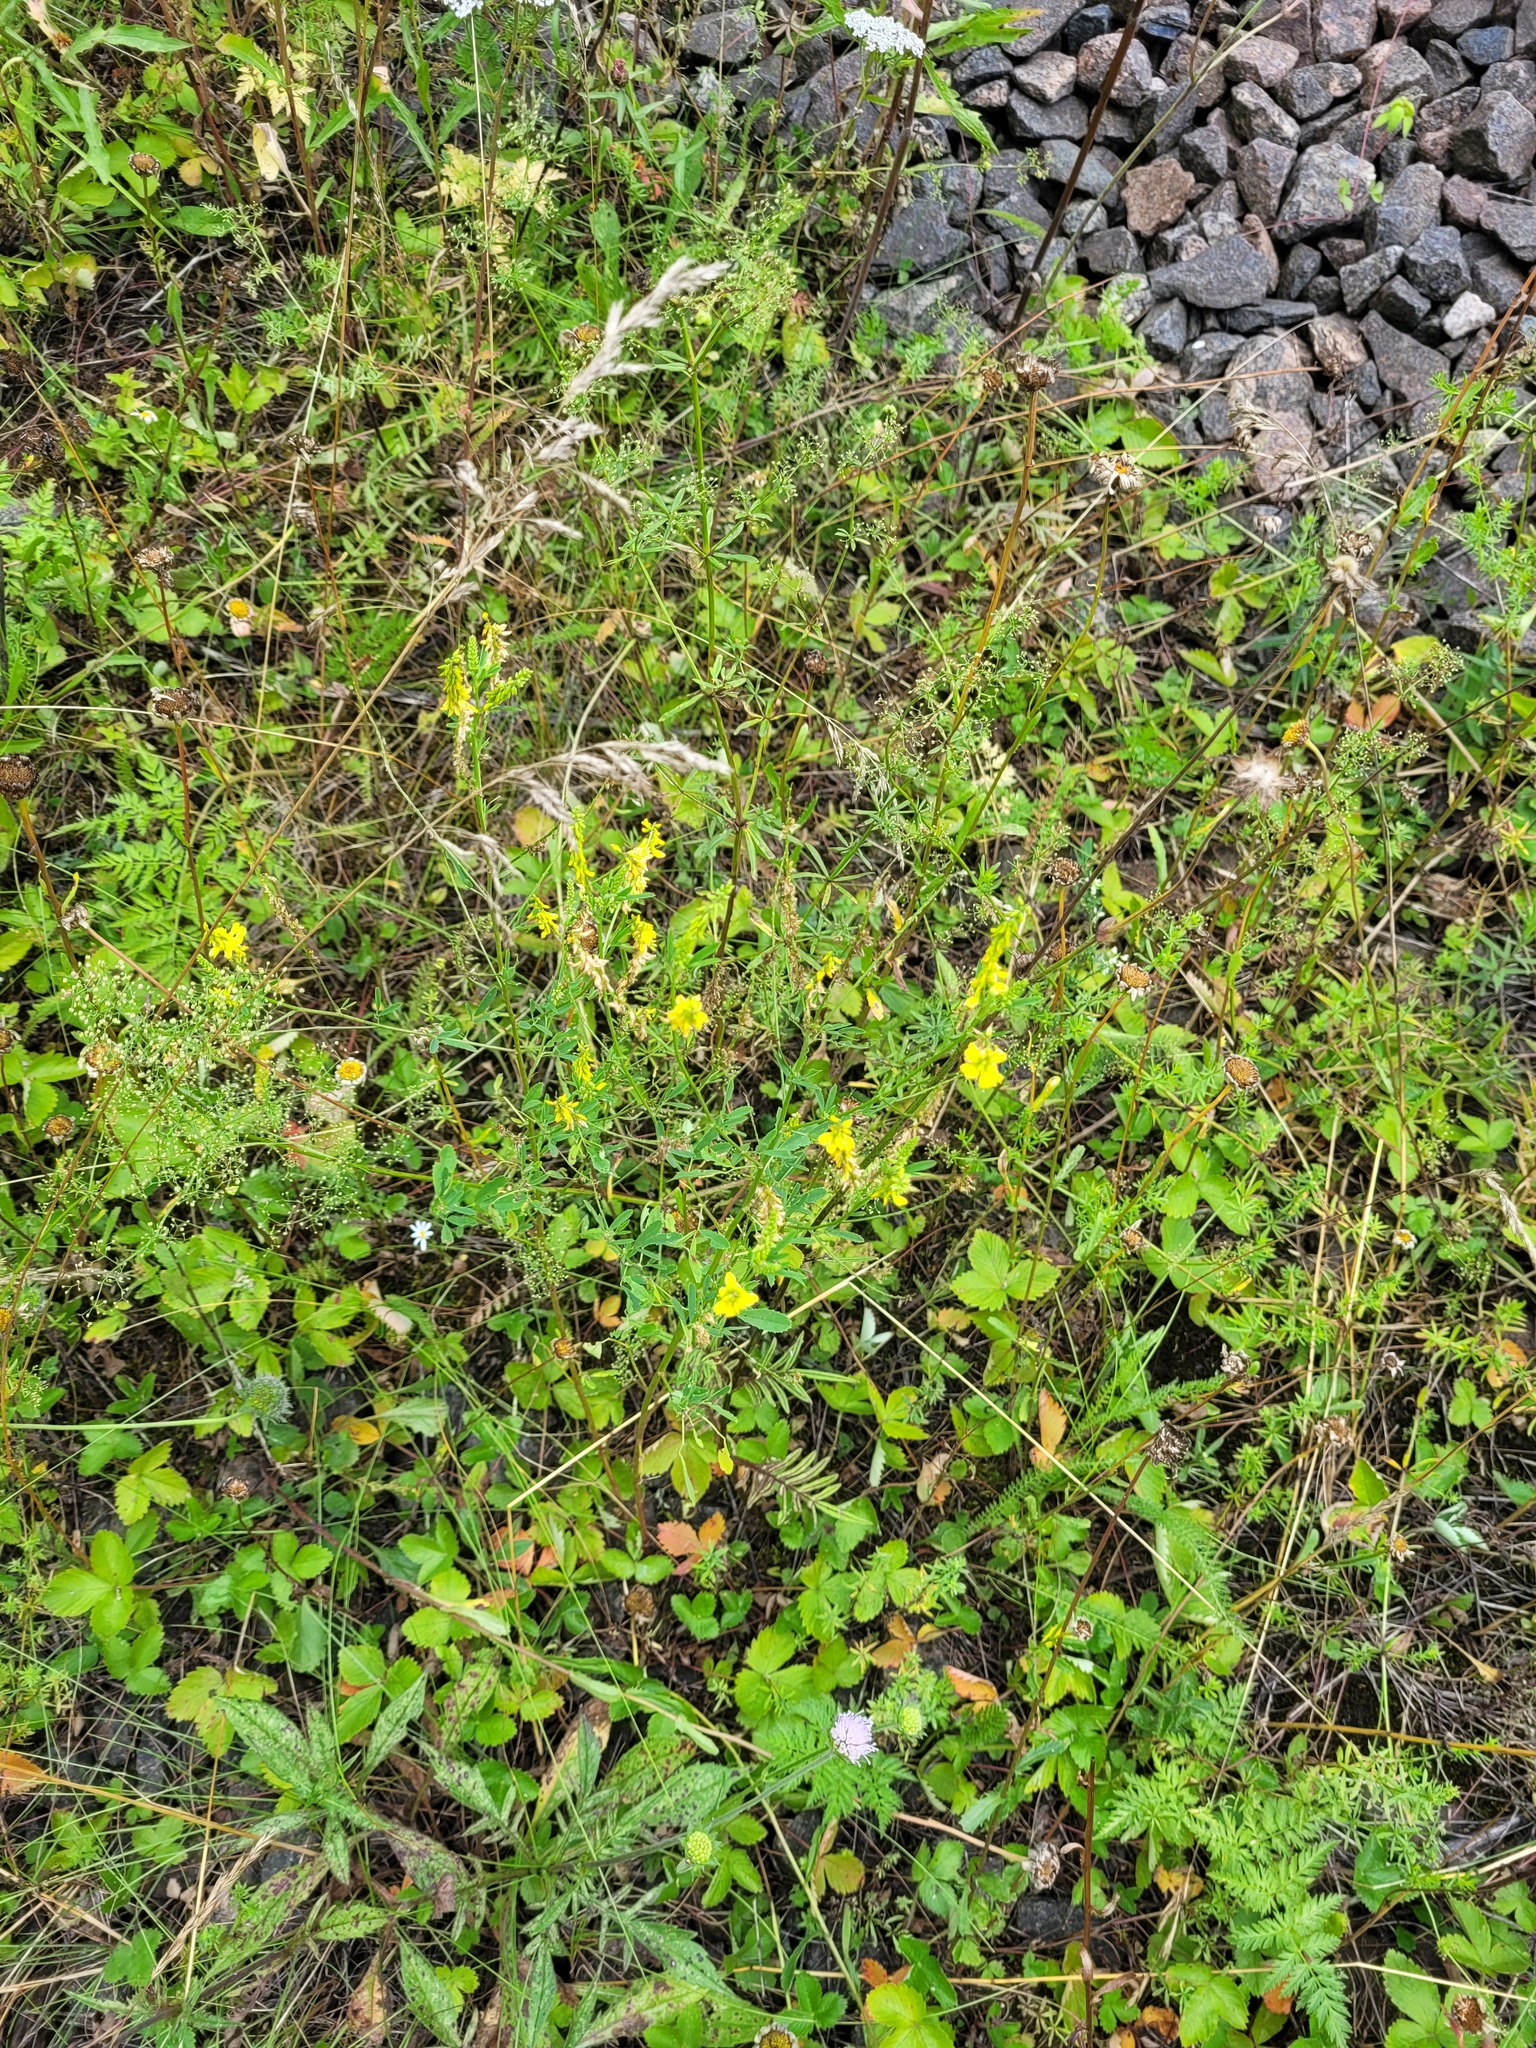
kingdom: Plantae
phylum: Tracheophyta
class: Magnoliopsida
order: Fabales
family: Fabaceae
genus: Melilotus
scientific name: Melilotus officinalis
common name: Sweetclover
